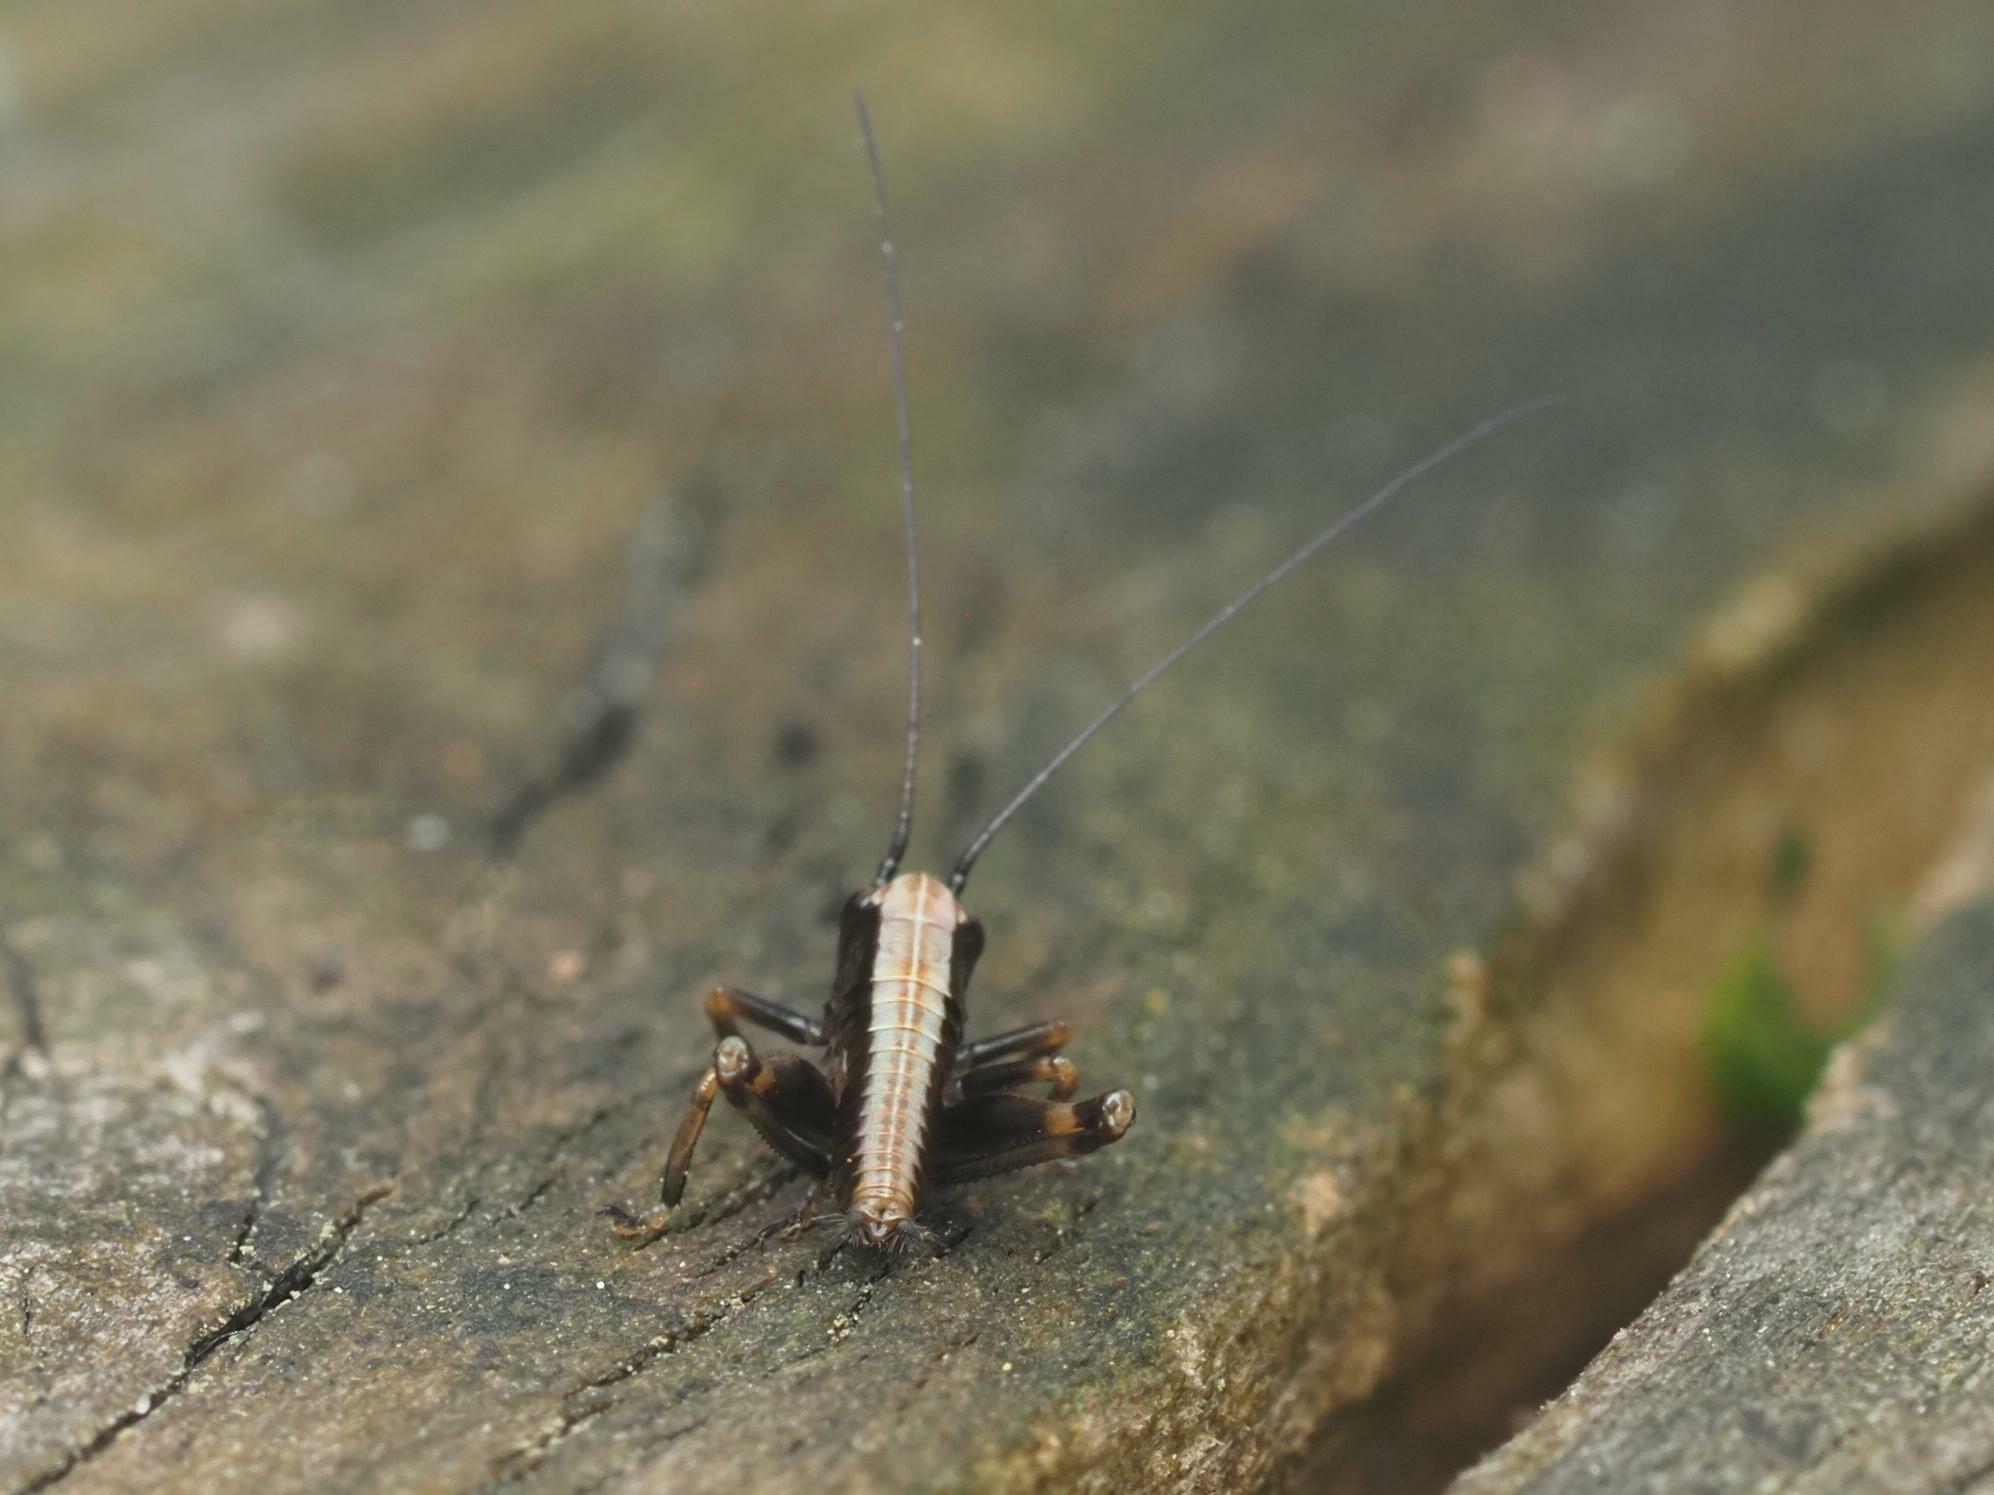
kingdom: Animalia
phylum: Arthropoda
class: Insecta
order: Orthoptera
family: Tettigoniidae
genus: Pholidoptera
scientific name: Pholidoptera griseoaptera
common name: Dark bush-cricket
